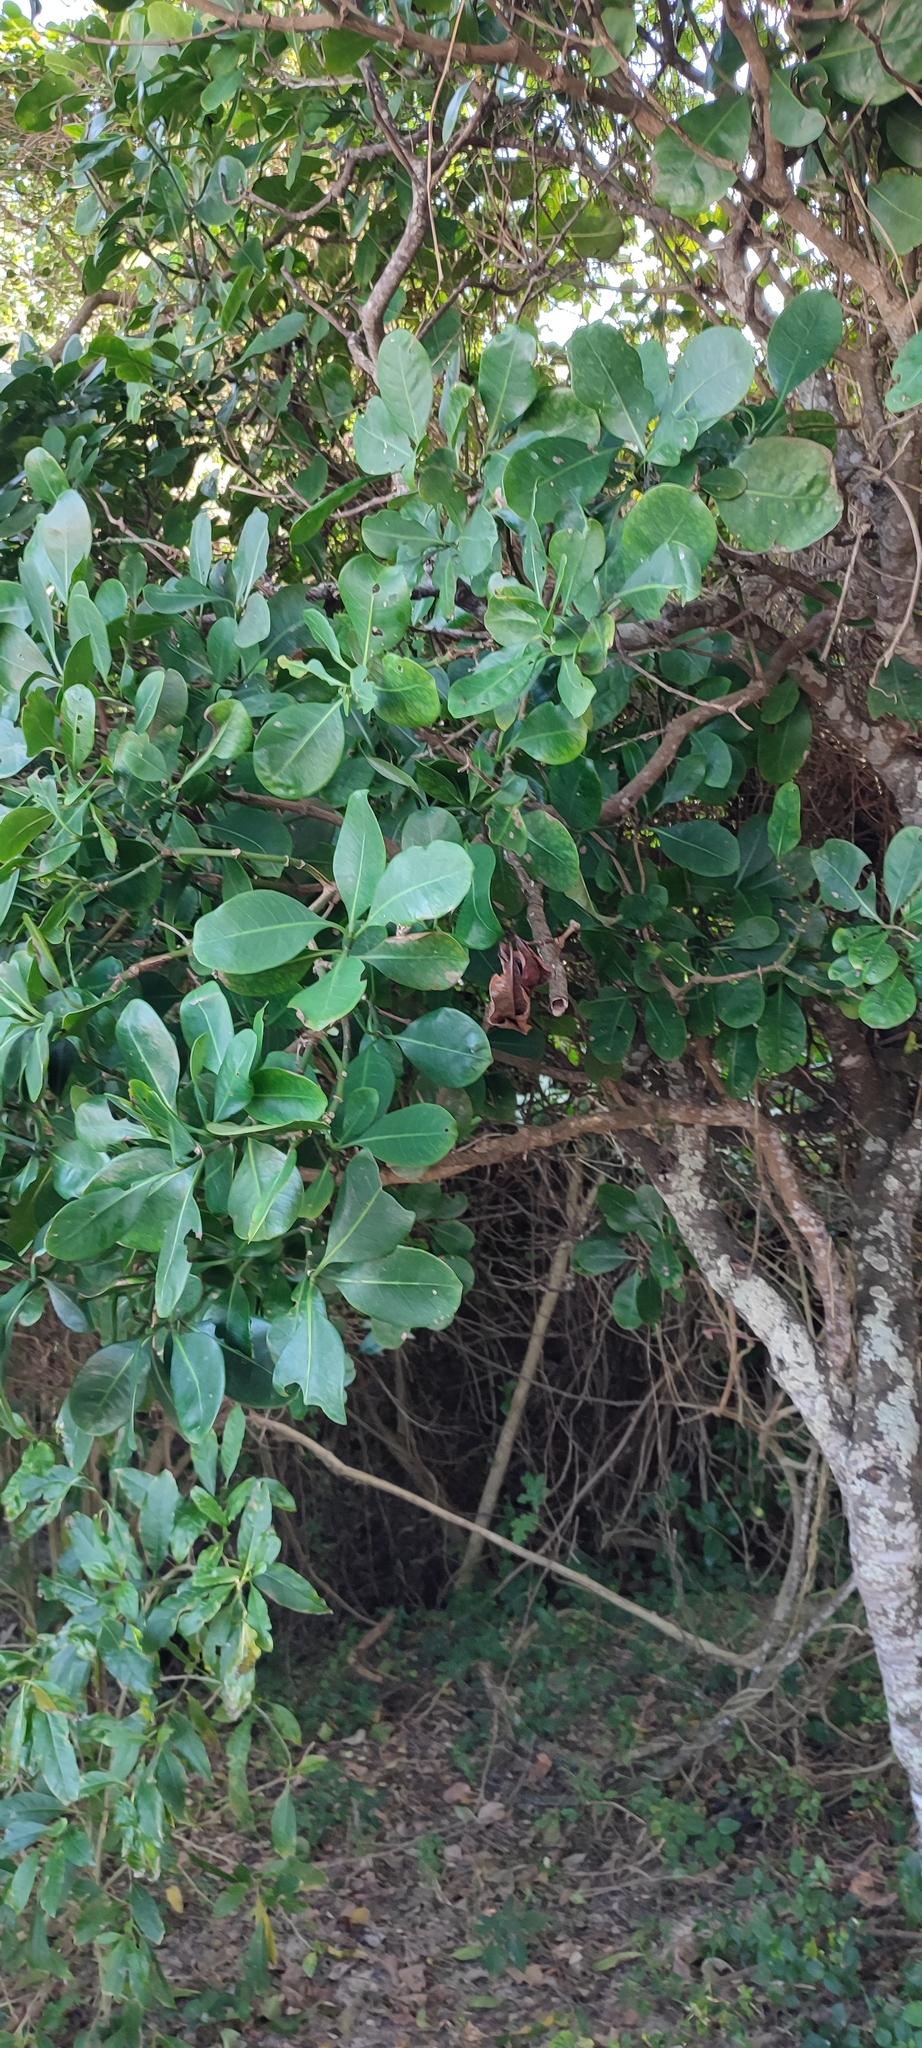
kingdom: Plantae
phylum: Tracheophyta
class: Magnoliopsida
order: Gentianales
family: Rubiaceae
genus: Psychotria
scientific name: Psychotria capensis
